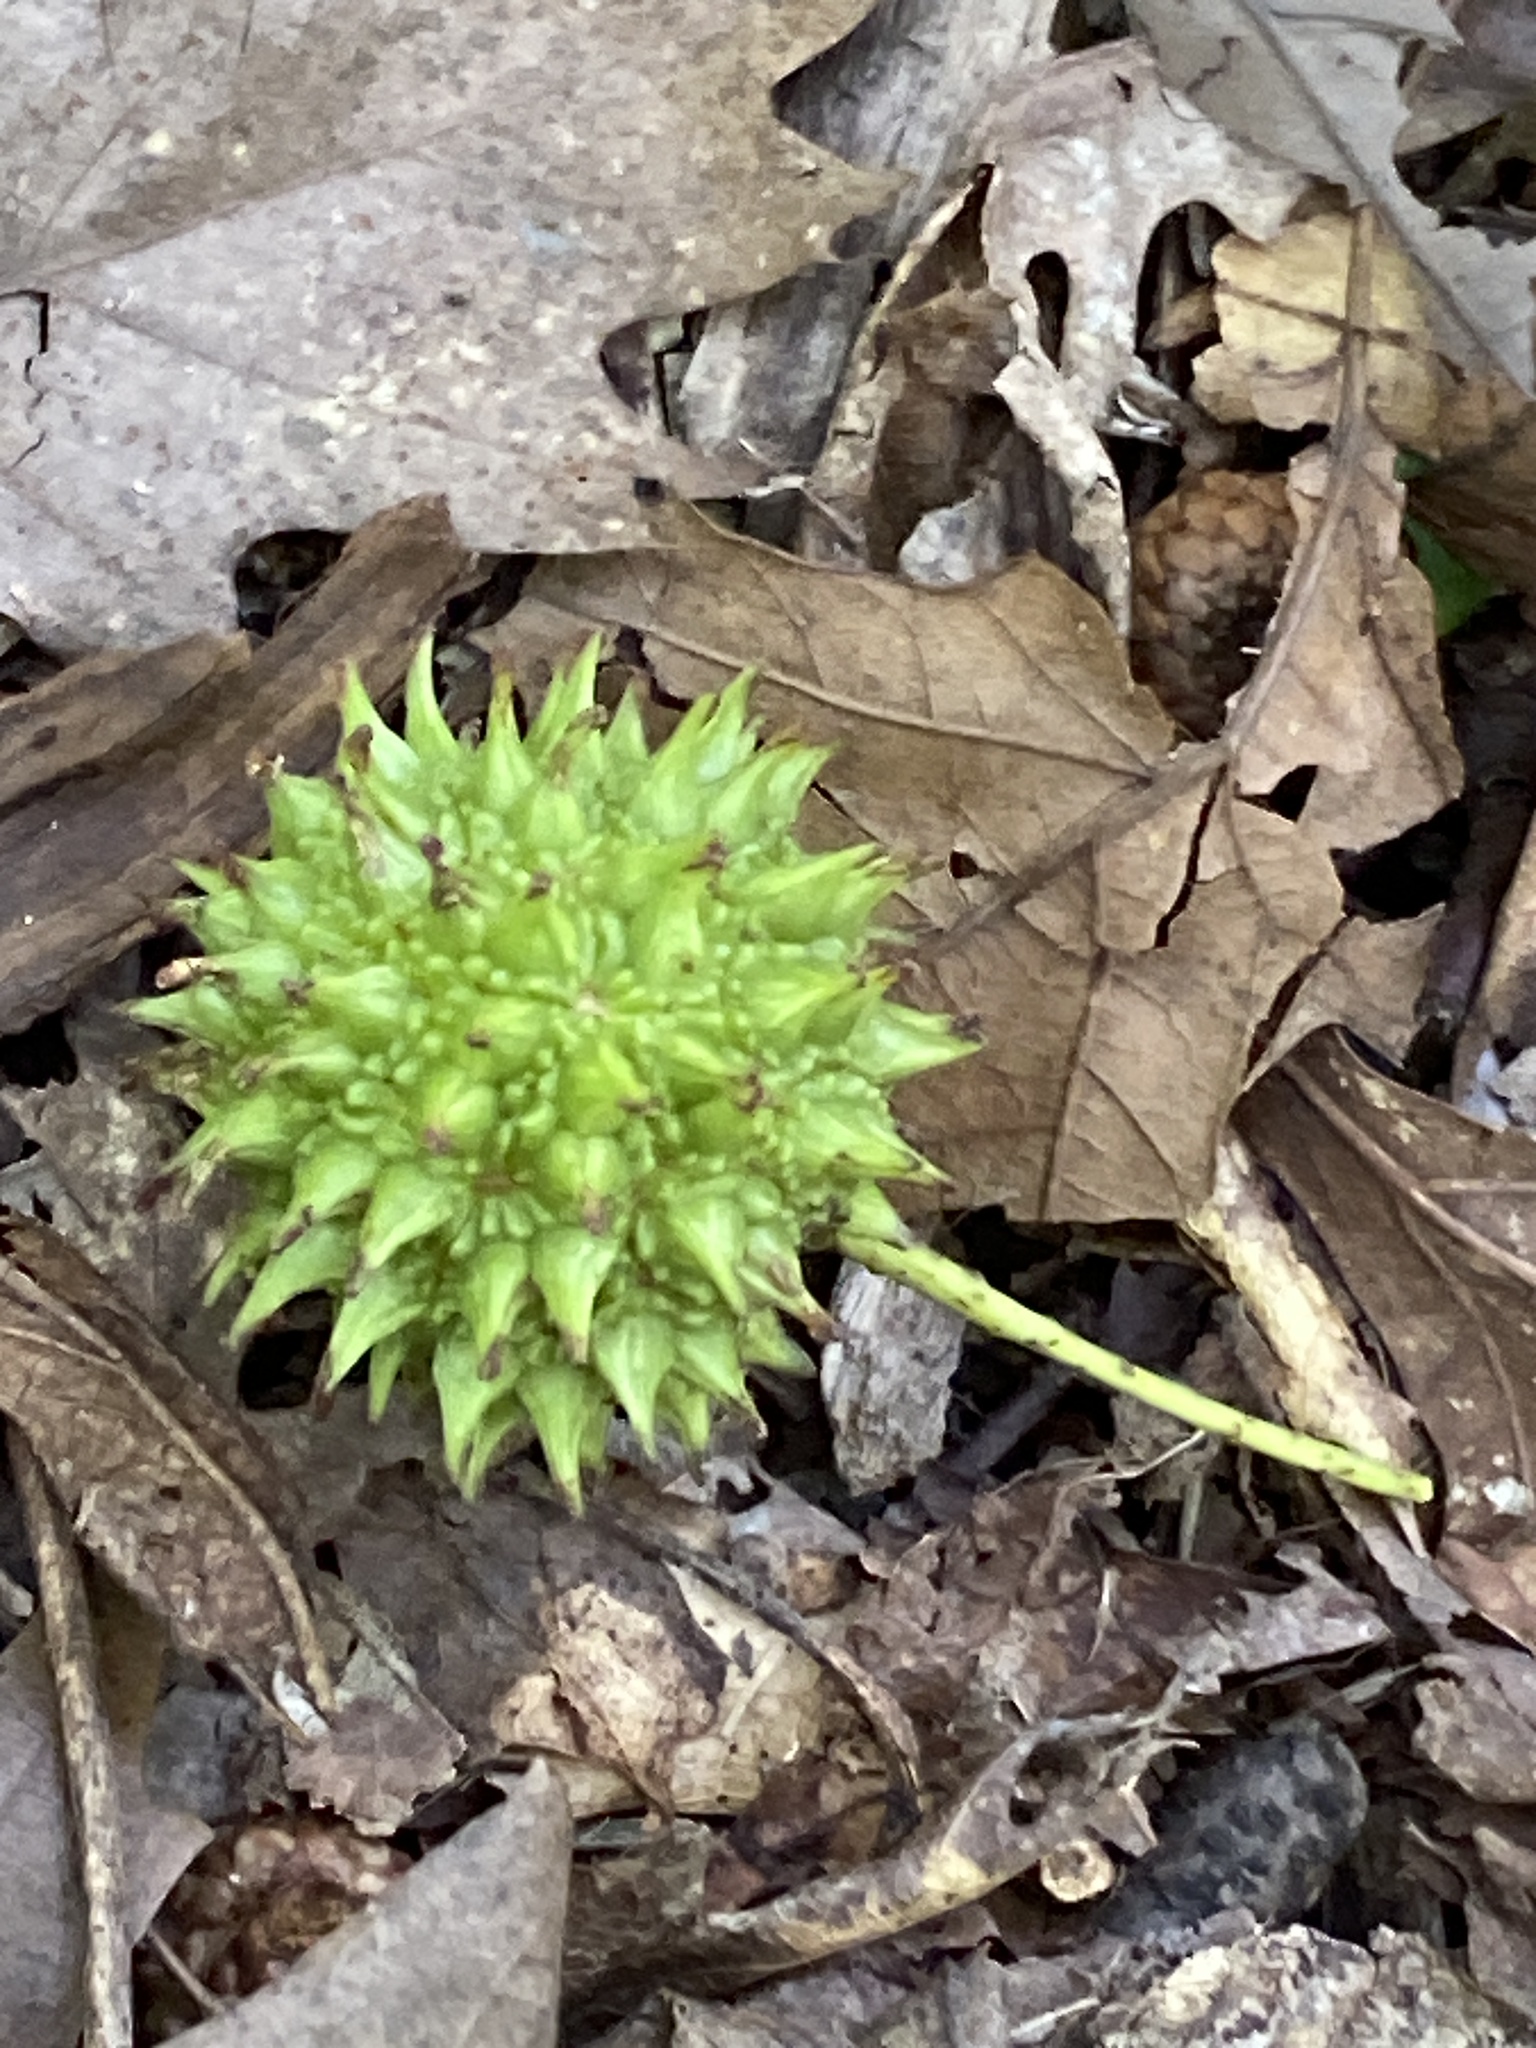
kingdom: Plantae
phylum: Tracheophyta
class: Magnoliopsida
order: Saxifragales
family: Altingiaceae
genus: Liquidambar
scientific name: Liquidambar styraciflua
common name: Sweet gum
